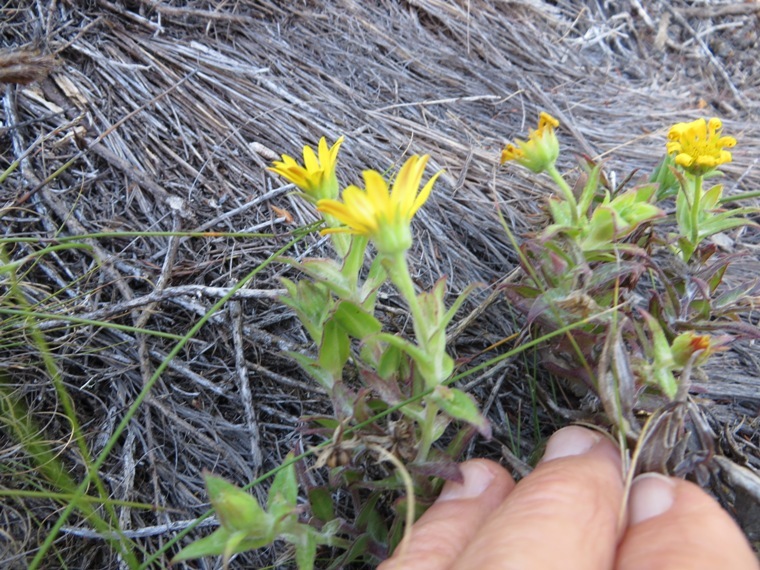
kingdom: Plantae
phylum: Tracheophyta
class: Magnoliopsida
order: Asterales
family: Asteraceae
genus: Osteospermum
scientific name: Osteospermum ilicifolium
